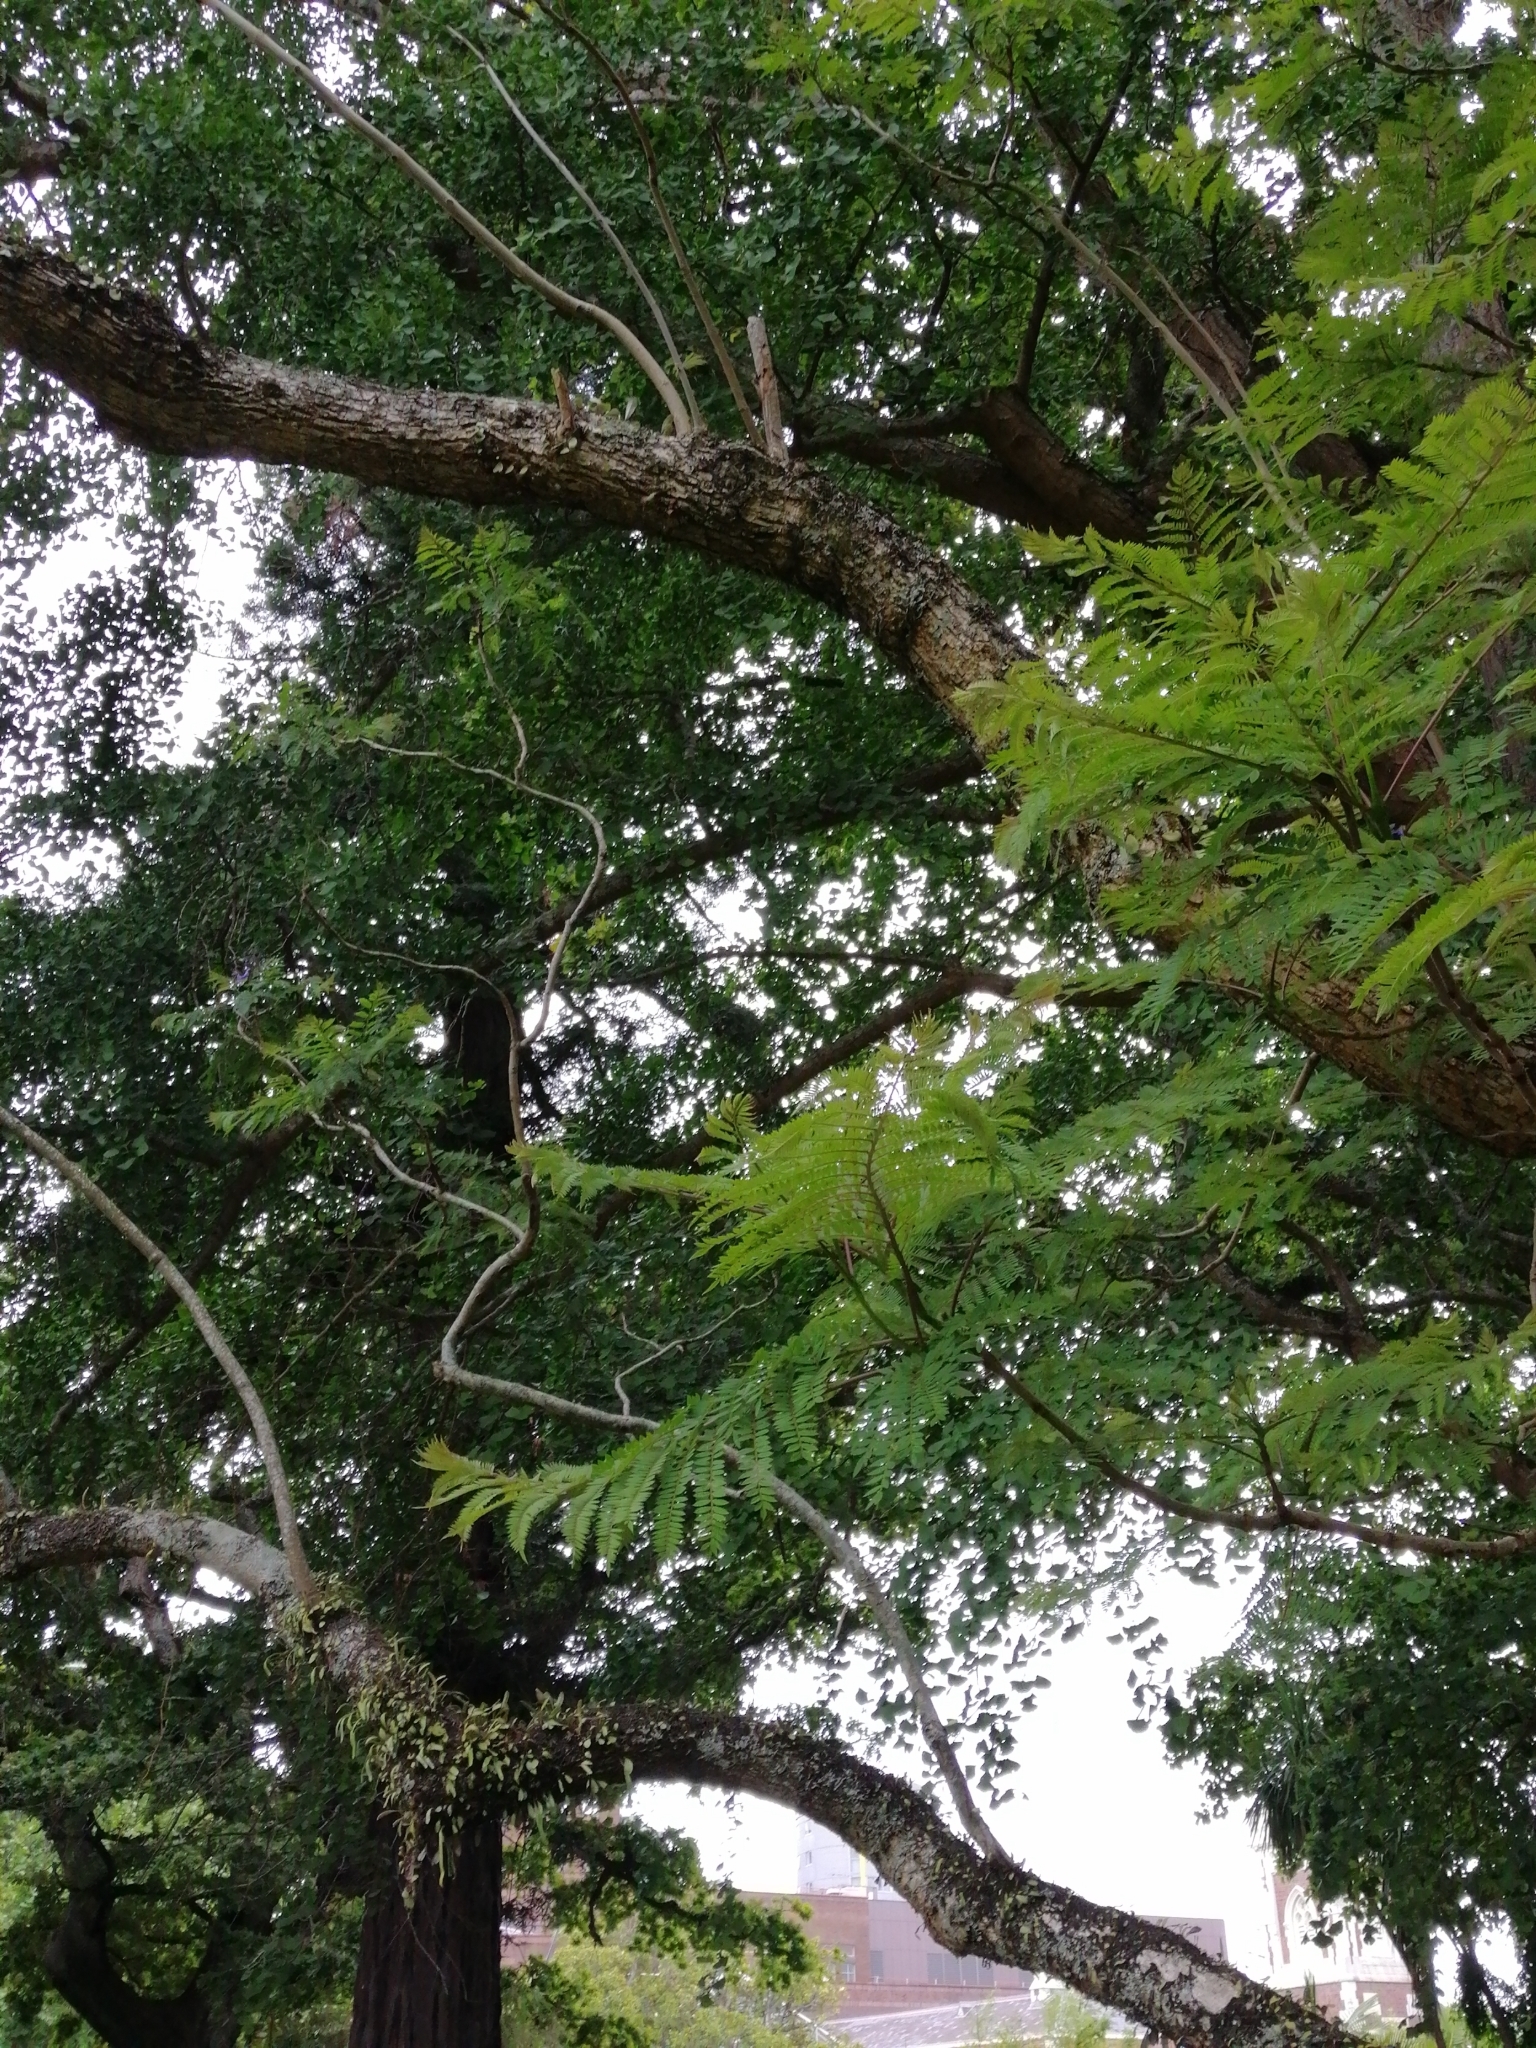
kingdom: Plantae
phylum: Tracheophyta
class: Polypodiopsida
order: Polypodiales
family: Polypodiaceae
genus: Pyrrosia
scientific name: Pyrrosia eleagnifolia
